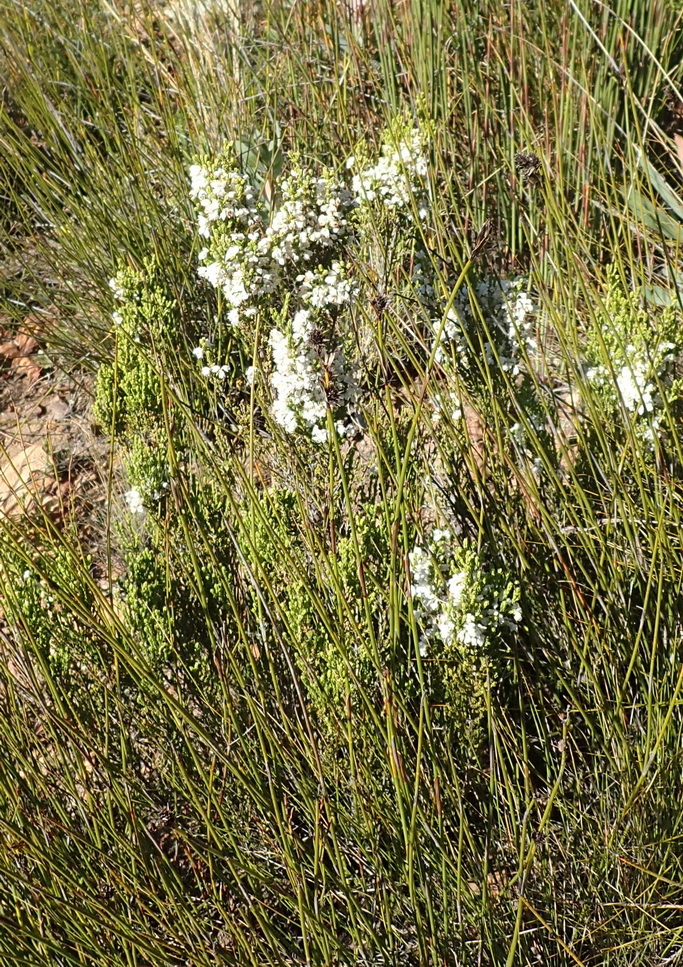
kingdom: Plantae
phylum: Tracheophyta
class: Magnoliopsida
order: Ericales
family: Ericaceae
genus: Erica
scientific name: Erica pseudocalycina
